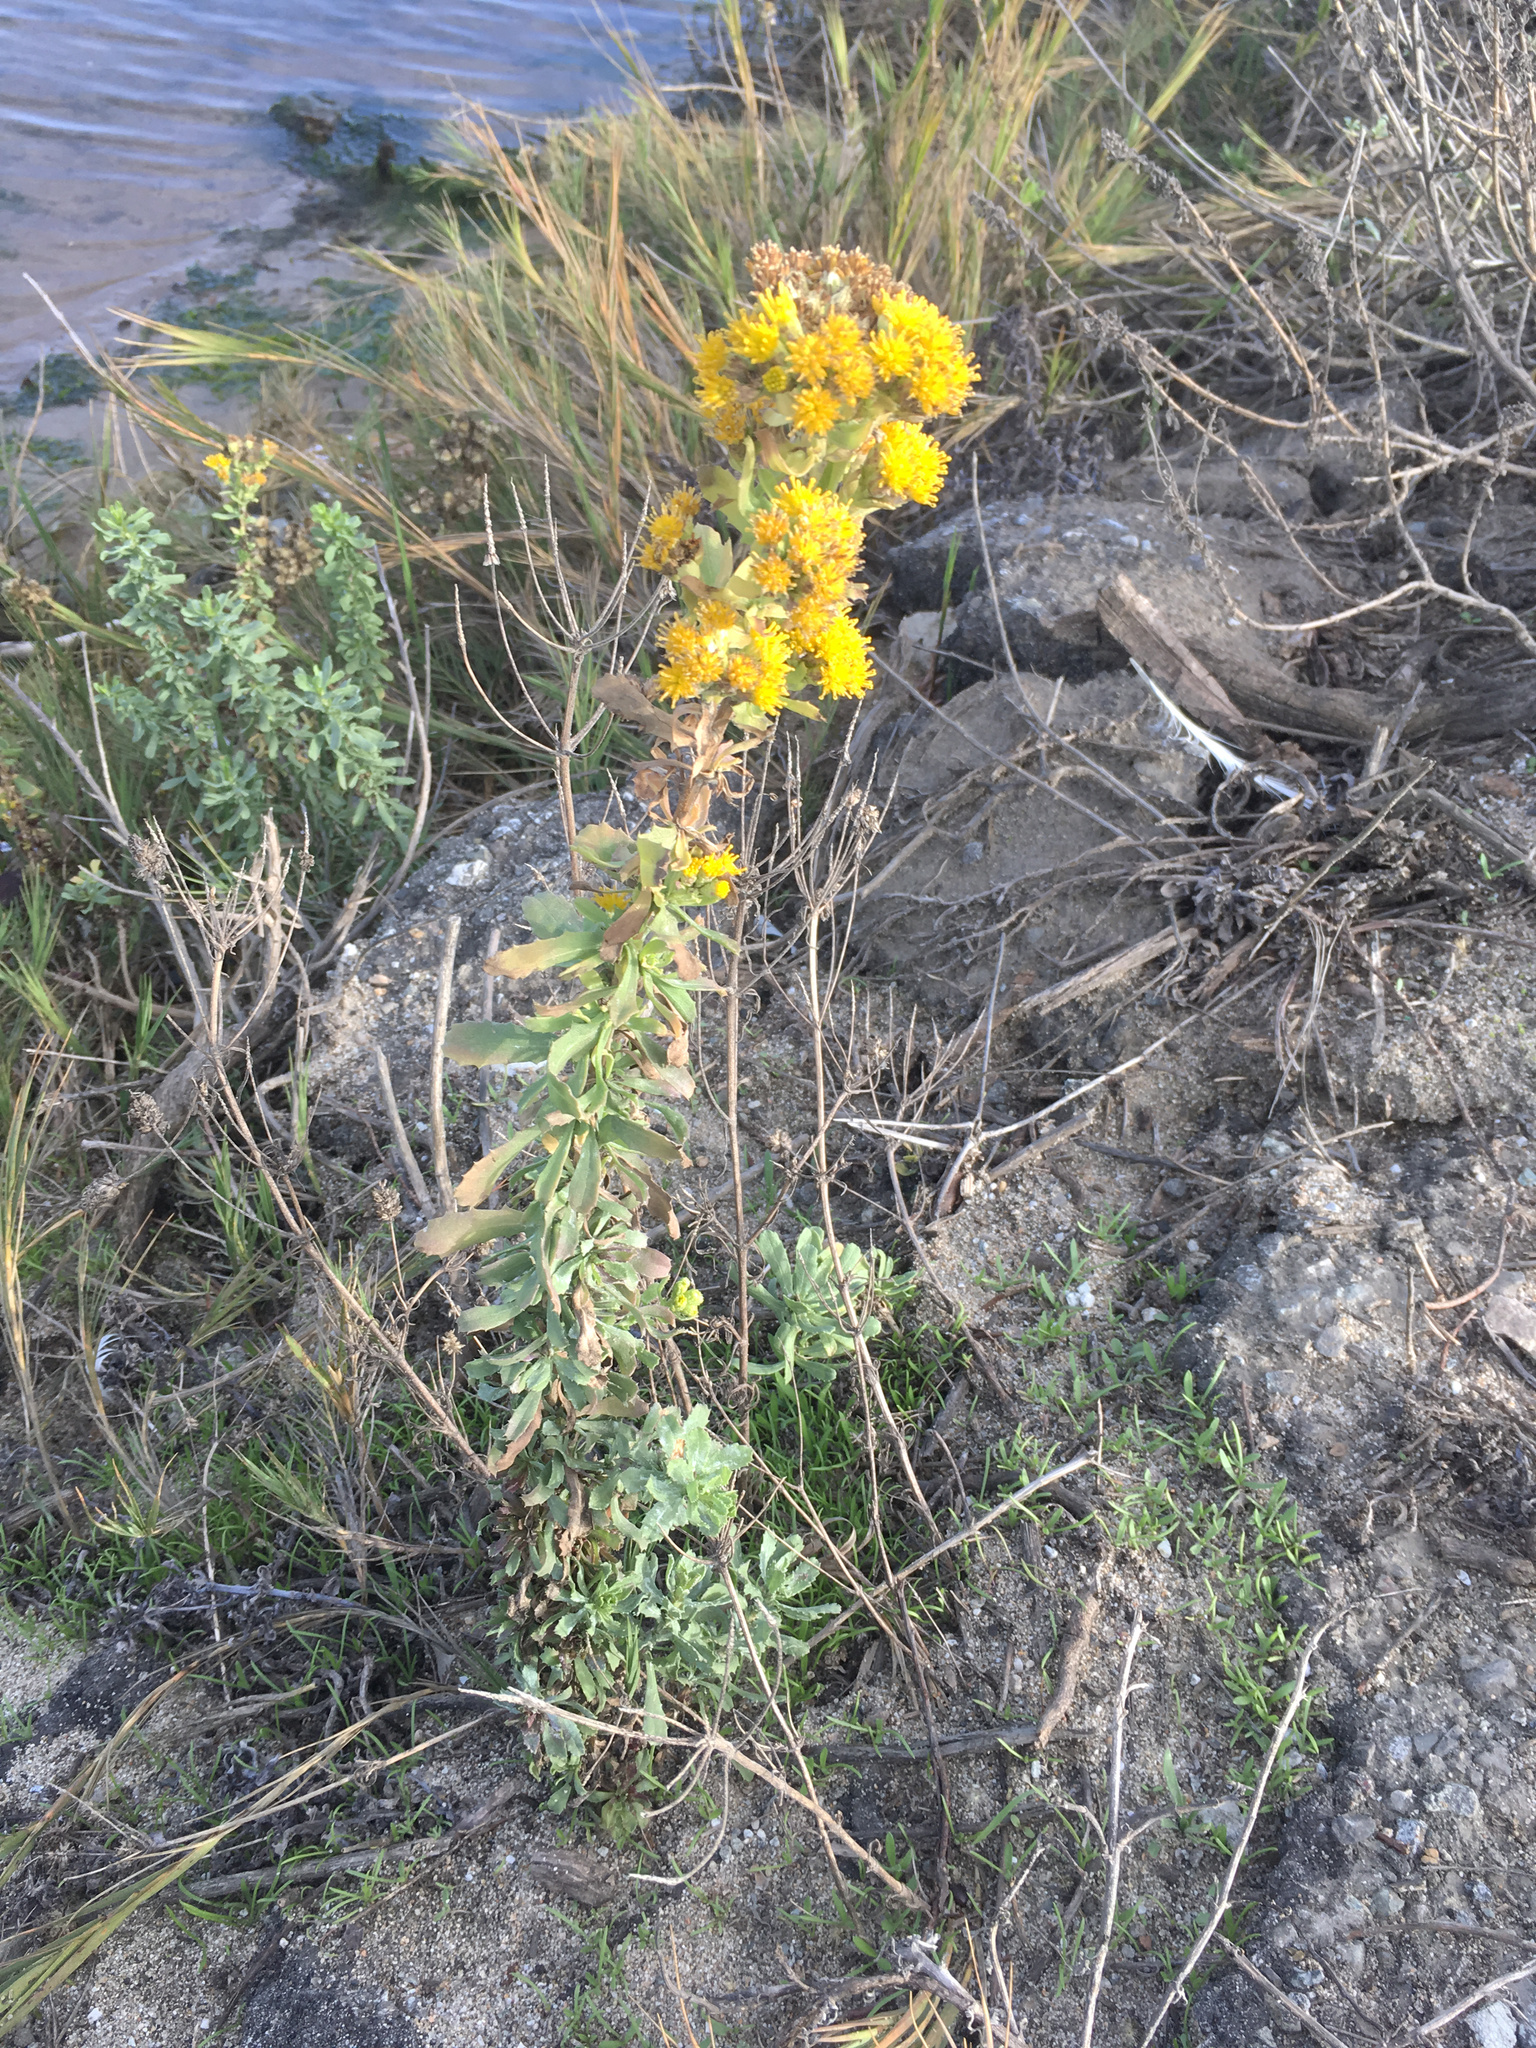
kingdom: Plantae
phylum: Tracheophyta
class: Magnoliopsida
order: Asterales
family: Asteraceae
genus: Isocoma
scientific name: Isocoma menziesii
